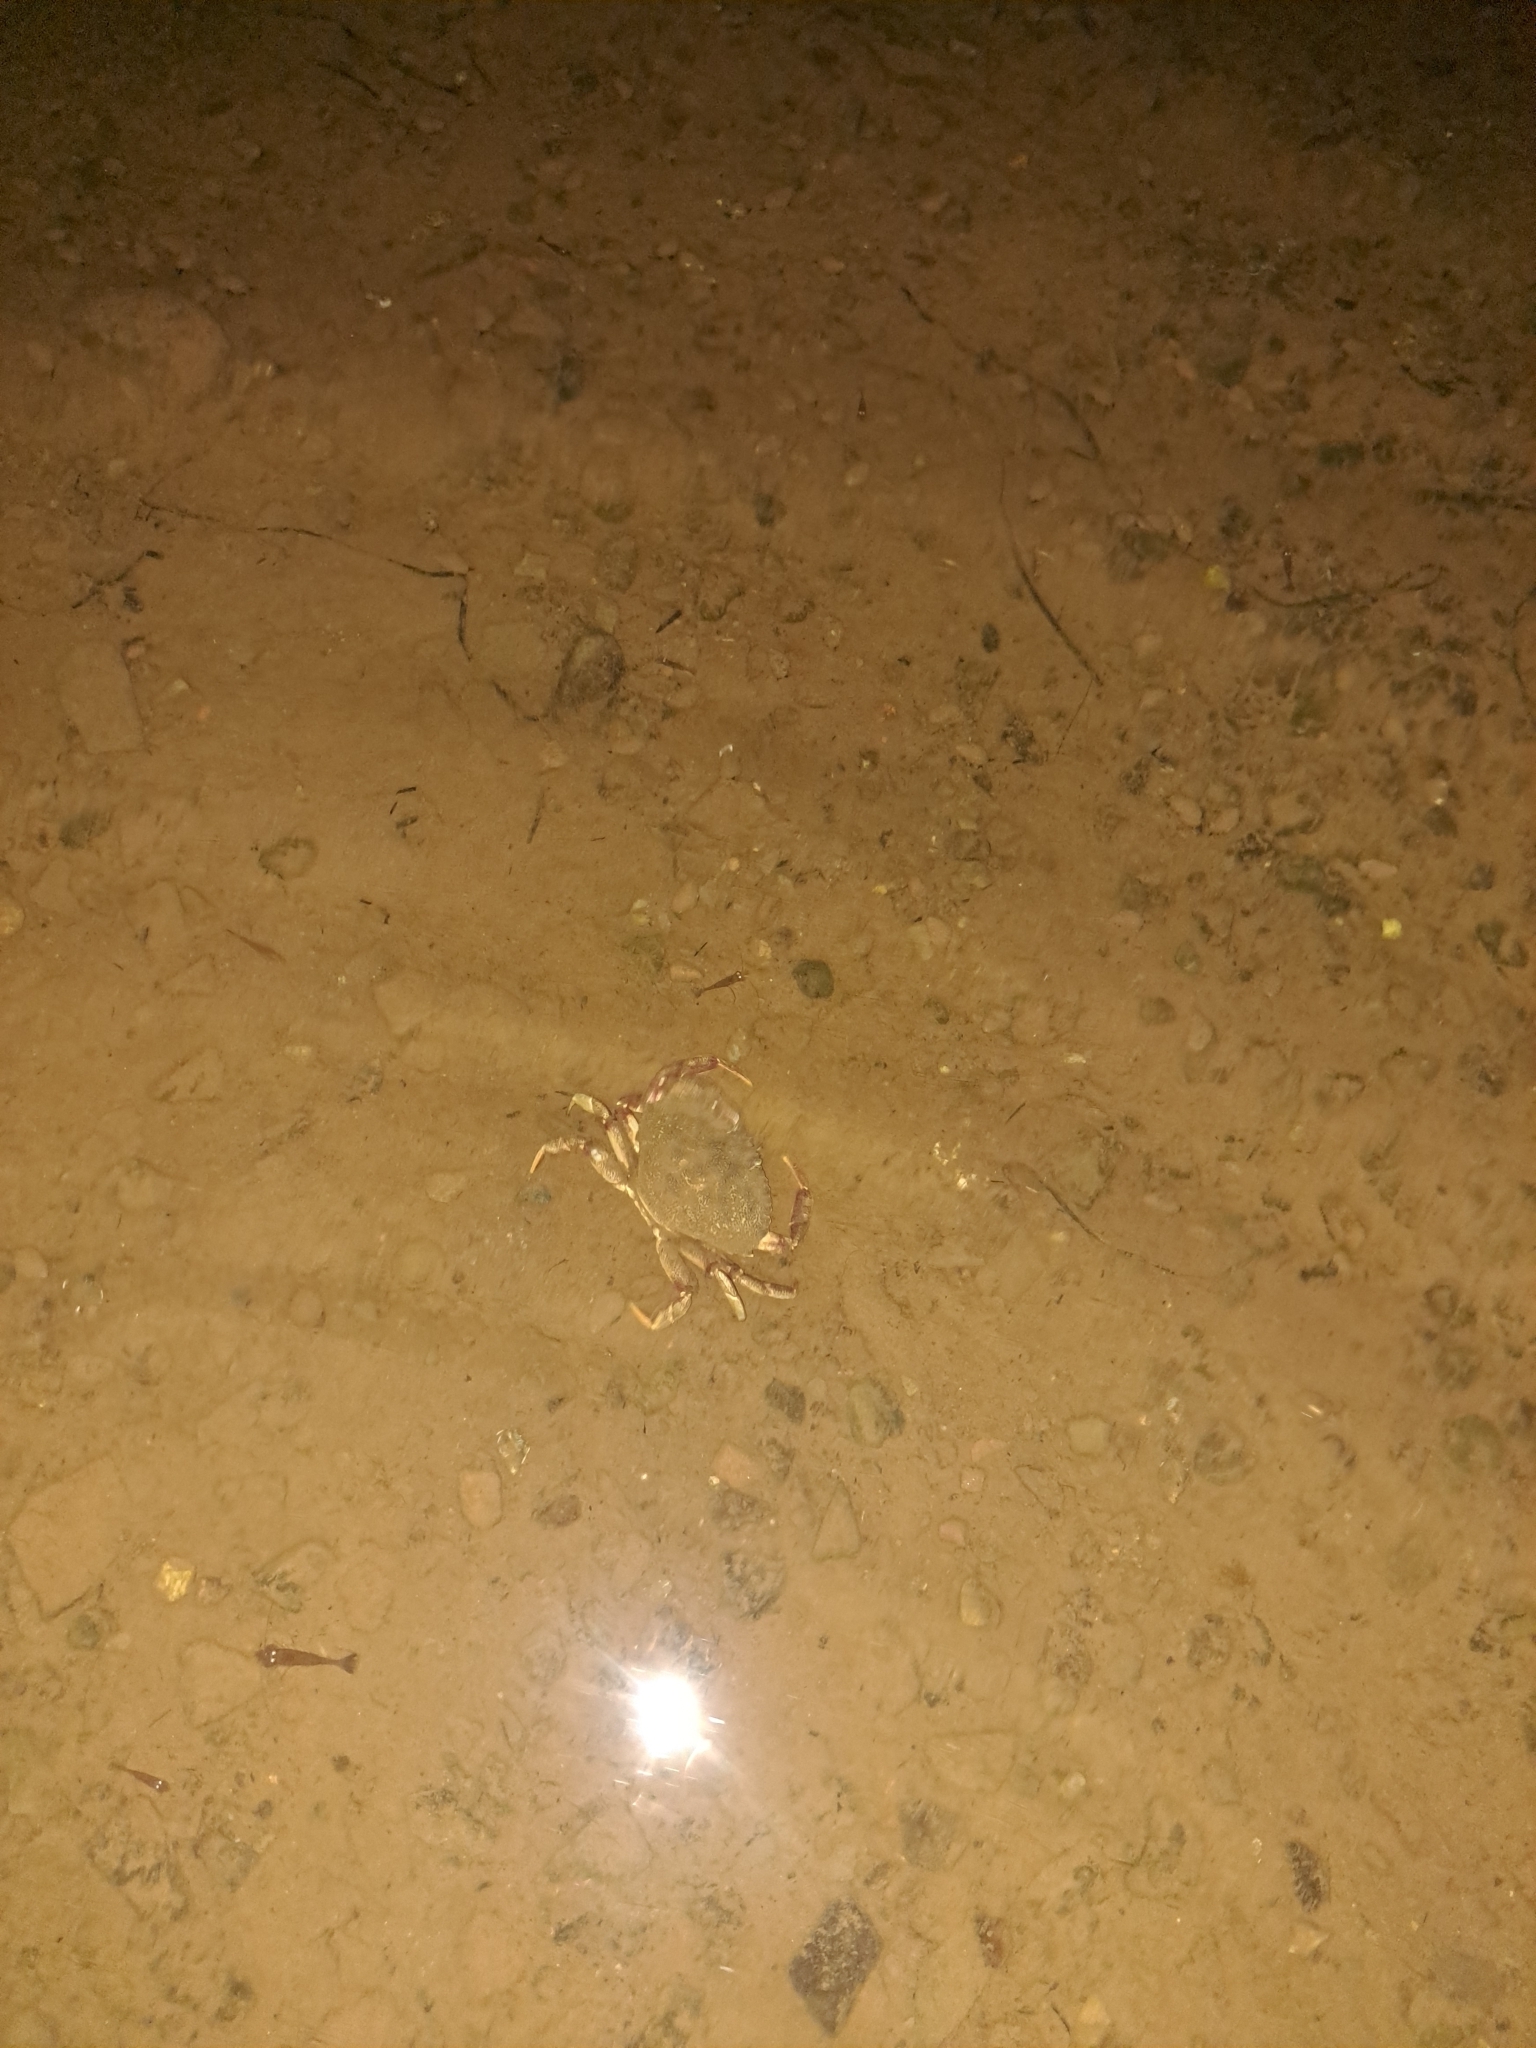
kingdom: Animalia
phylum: Arthropoda
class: Malacostraca
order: Decapoda
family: Cancridae
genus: Cancer
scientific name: Cancer irroratus
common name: Atlantic rock crab
